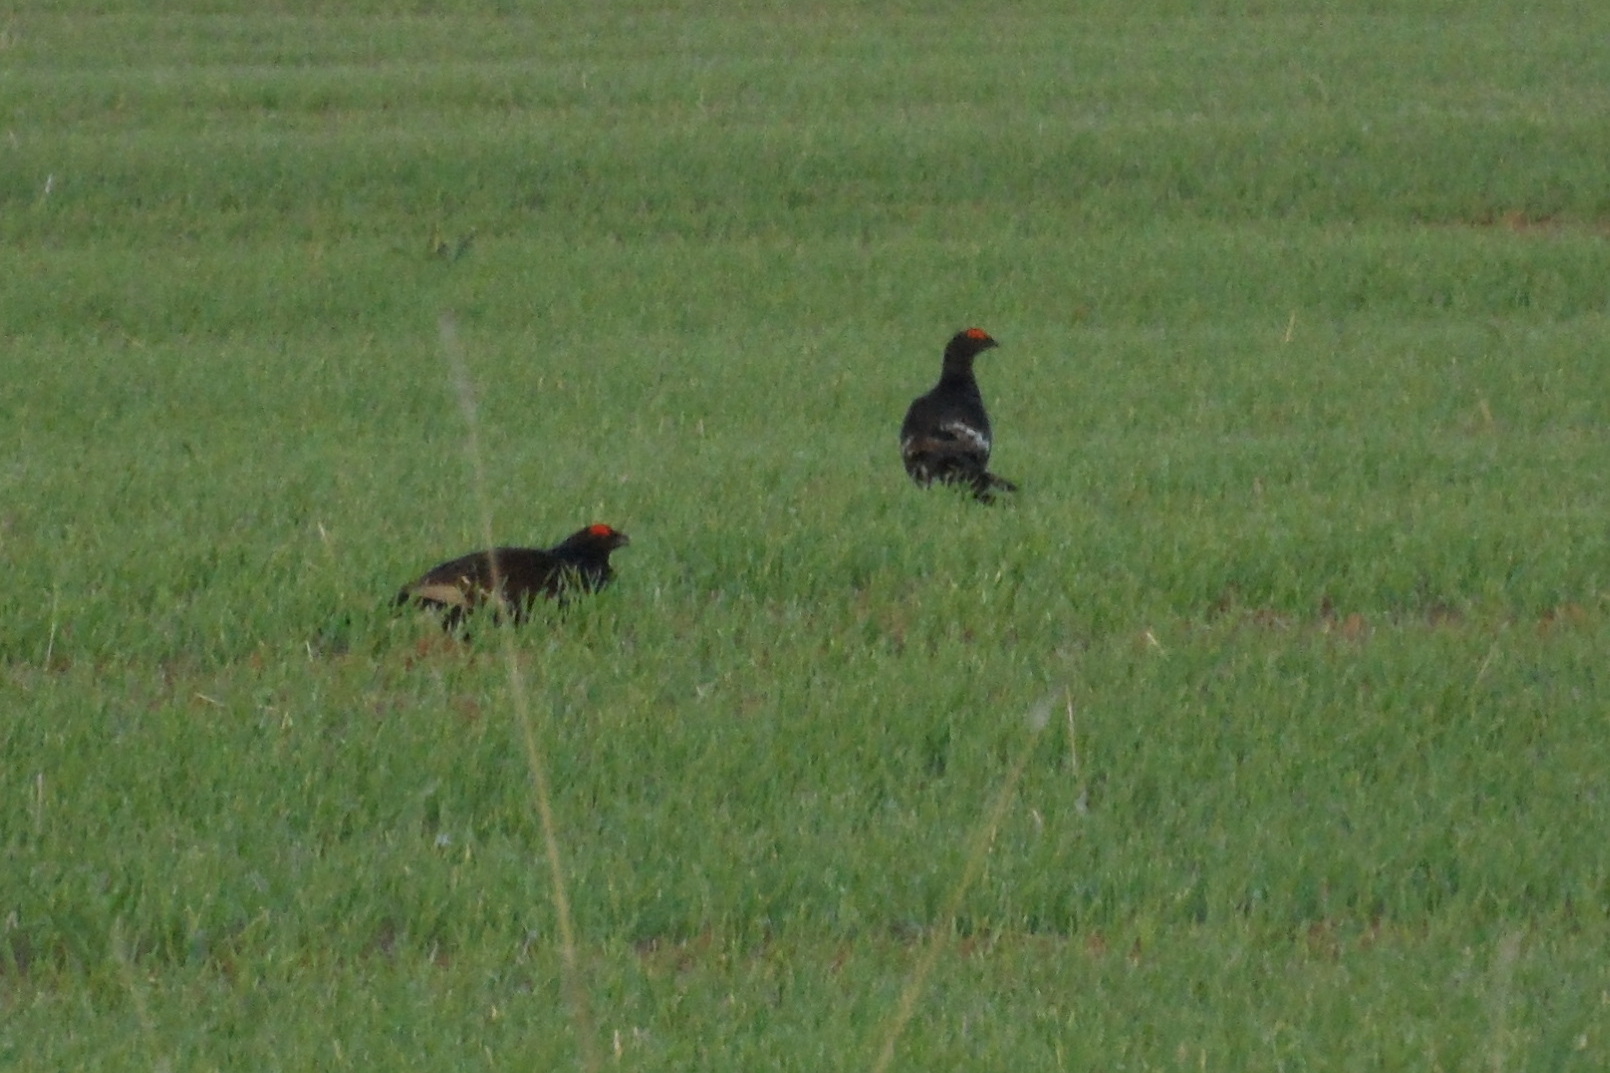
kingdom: Animalia
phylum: Chordata
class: Aves
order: Galliformes
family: Phasianidae
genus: Lyrurus
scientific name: Lyrurus tetrix
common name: Black grouse
